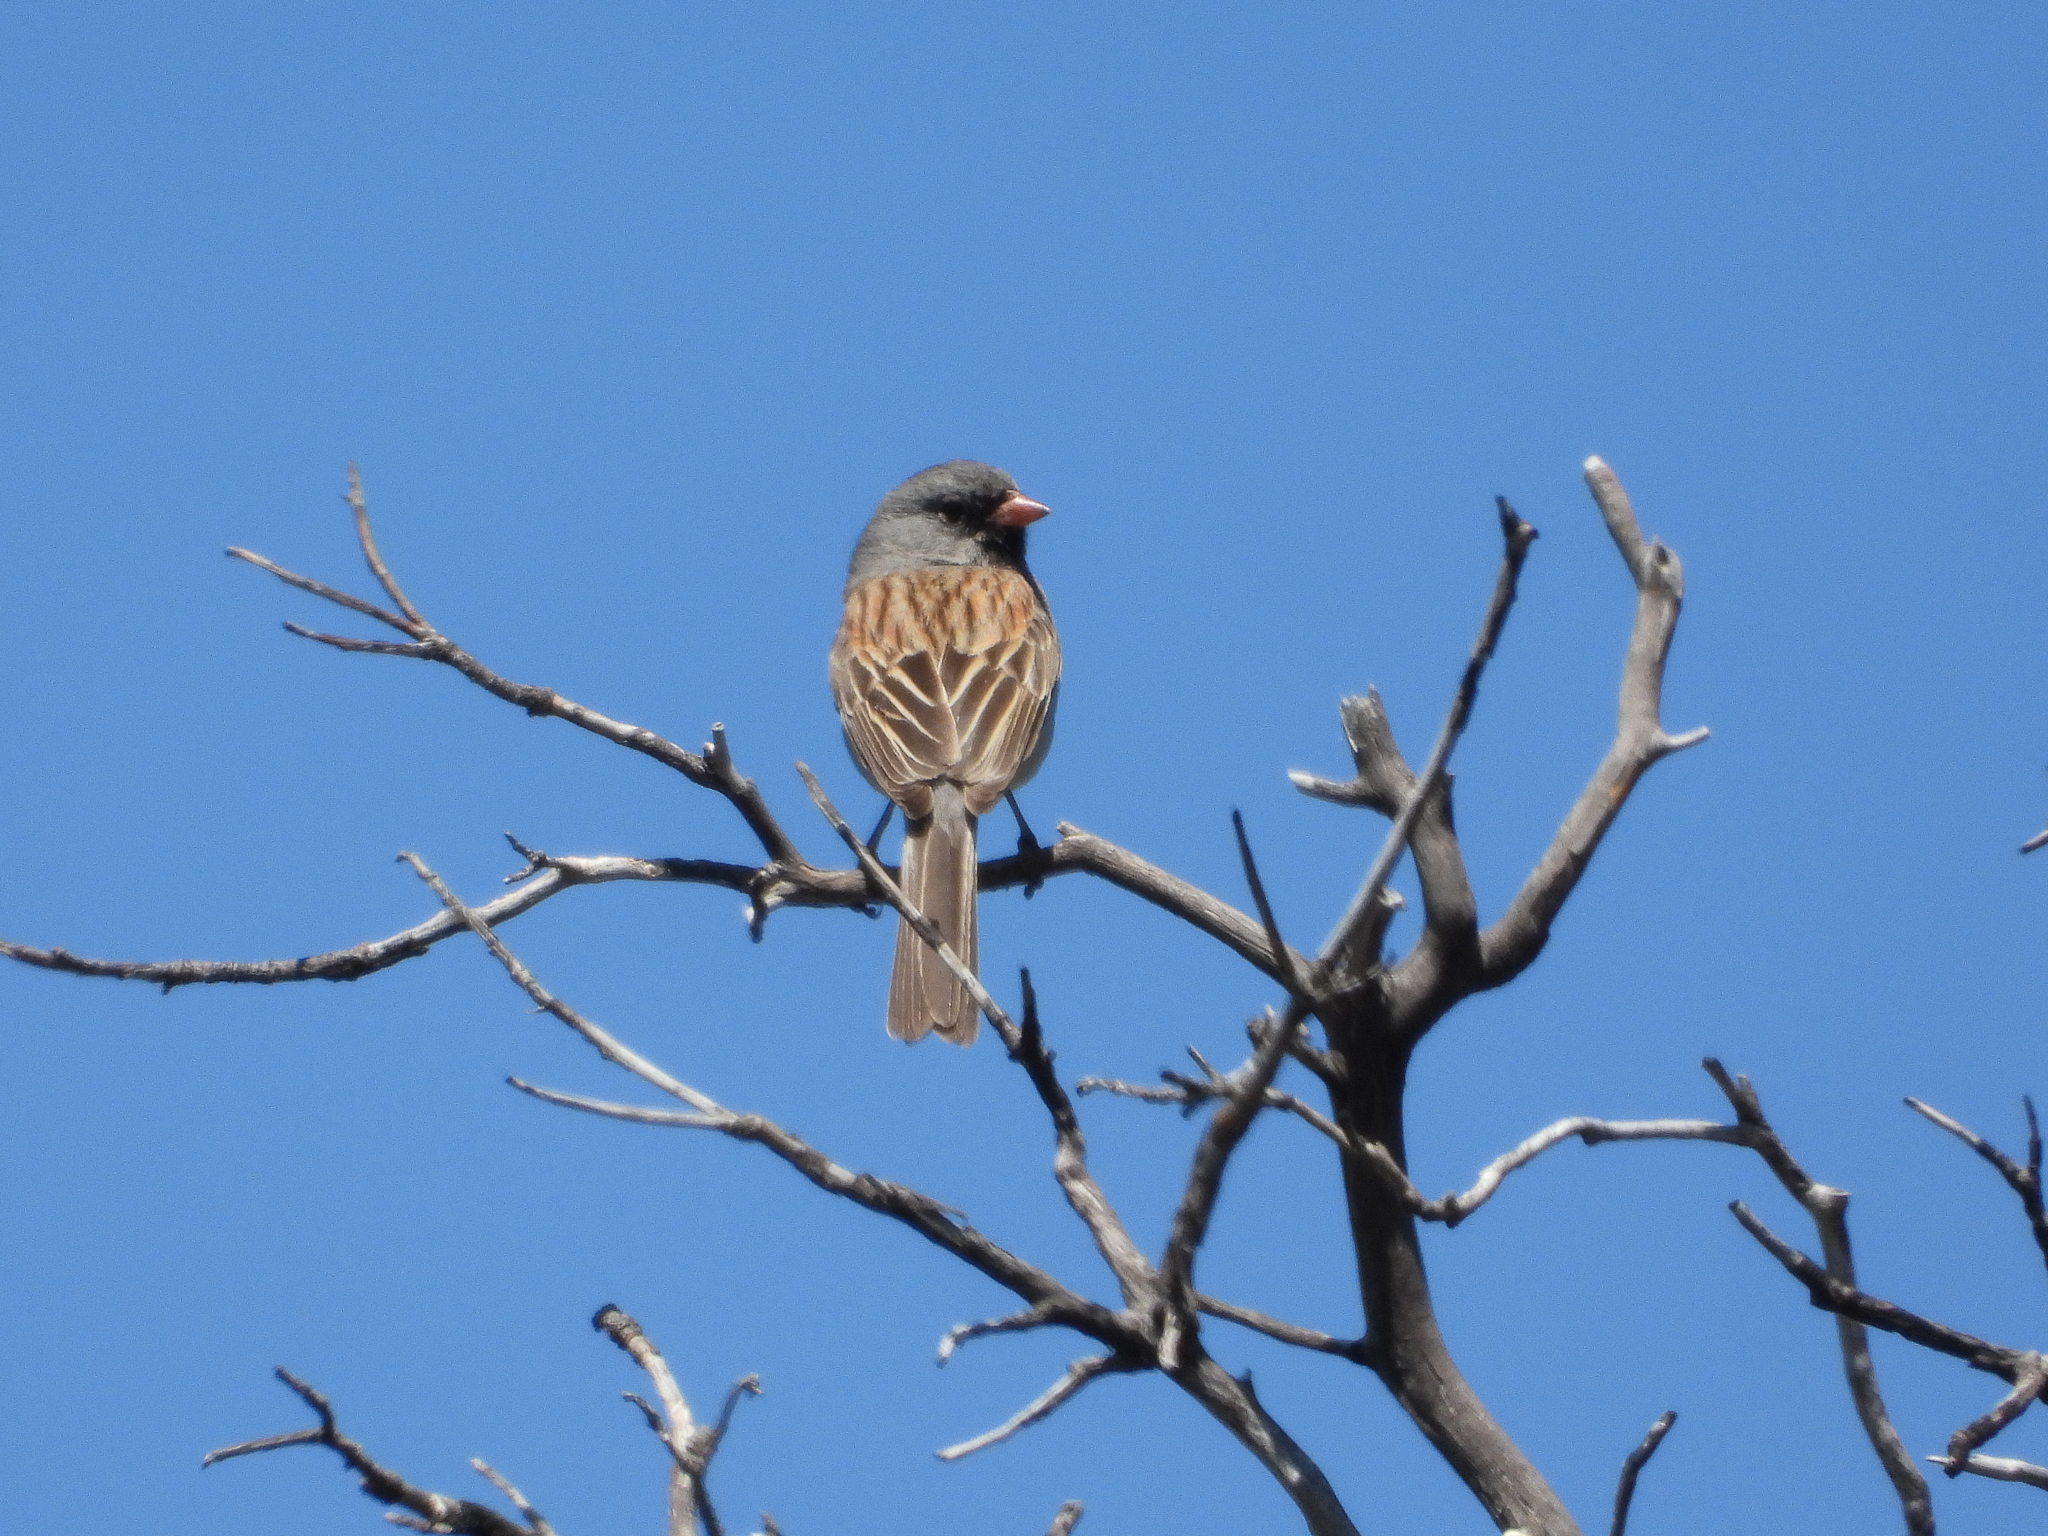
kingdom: Animalia
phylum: Chordata
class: Aves
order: Passeriformes
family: Passerellidae
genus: Spizella
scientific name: Spizella atrogularis
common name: Black-chinned sparrow
